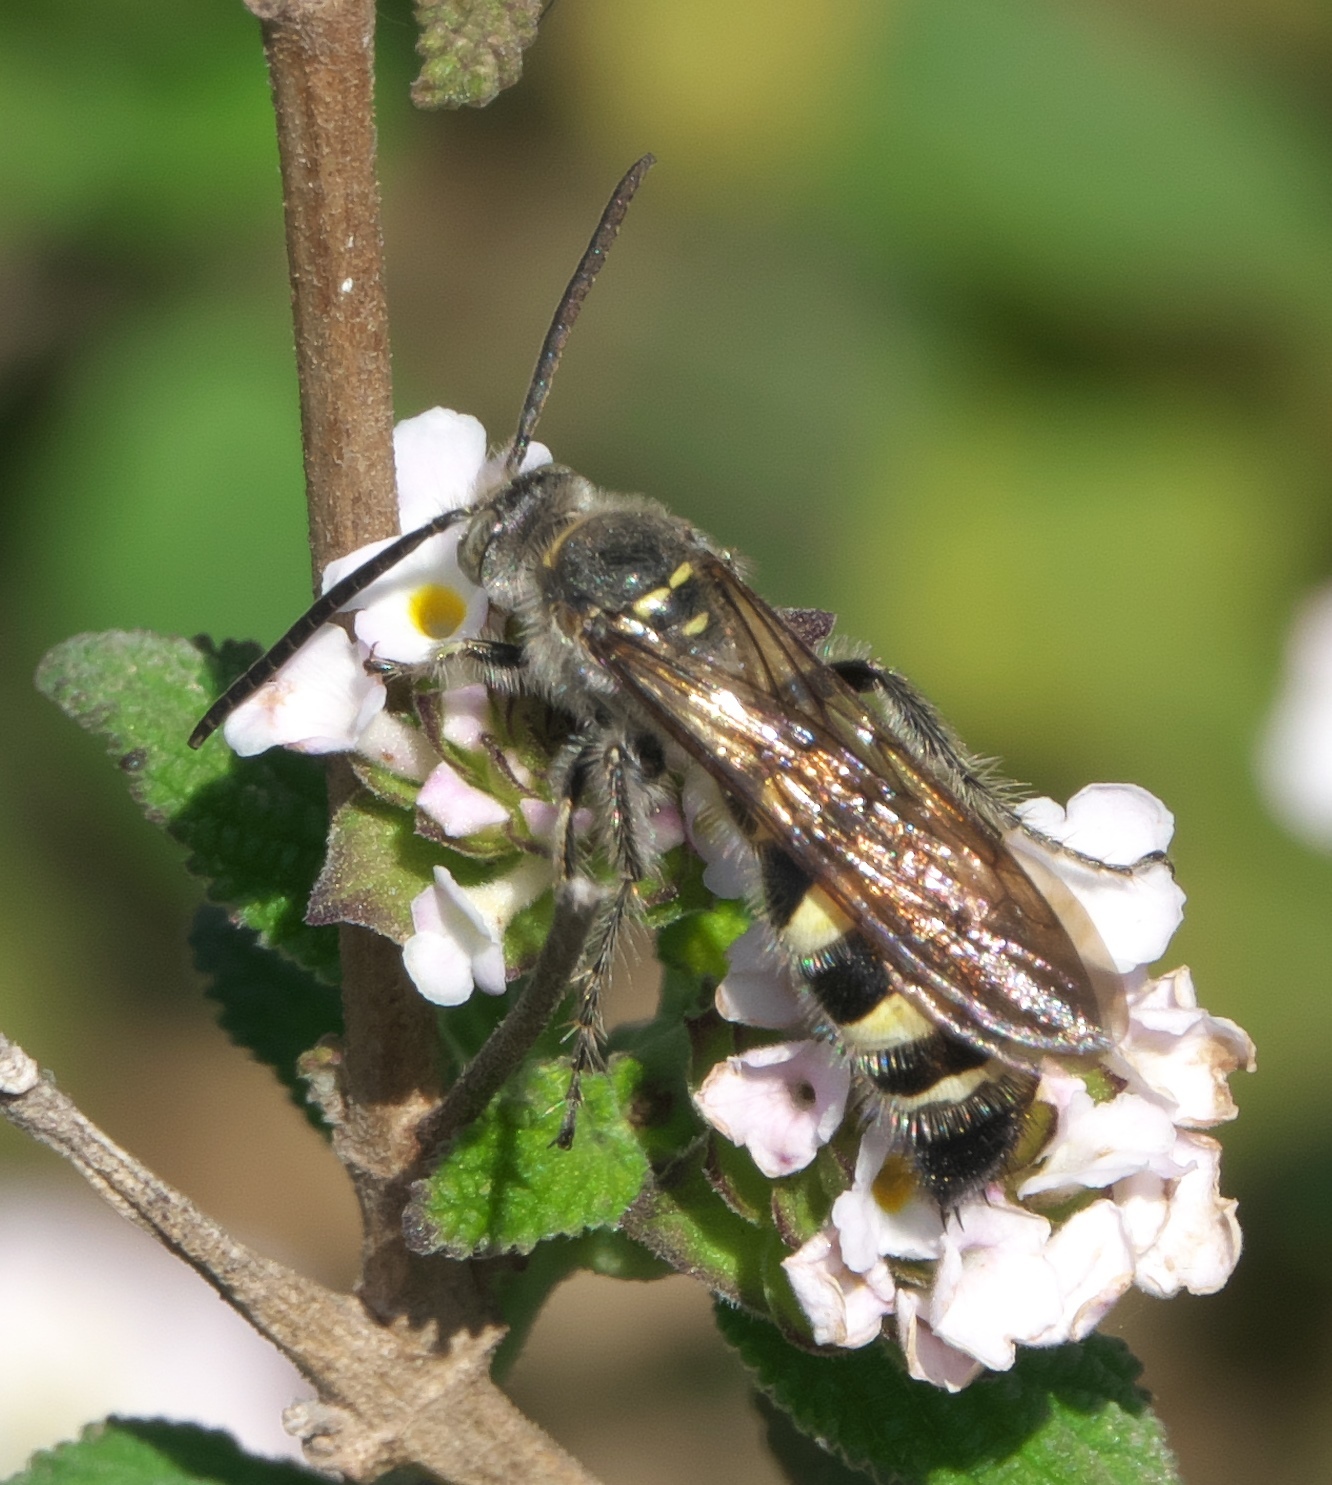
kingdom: Animalia
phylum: Arthropoda
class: Insecta
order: Hymenoptera
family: Scoliidae
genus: Dielis
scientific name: Dielis tolteca
